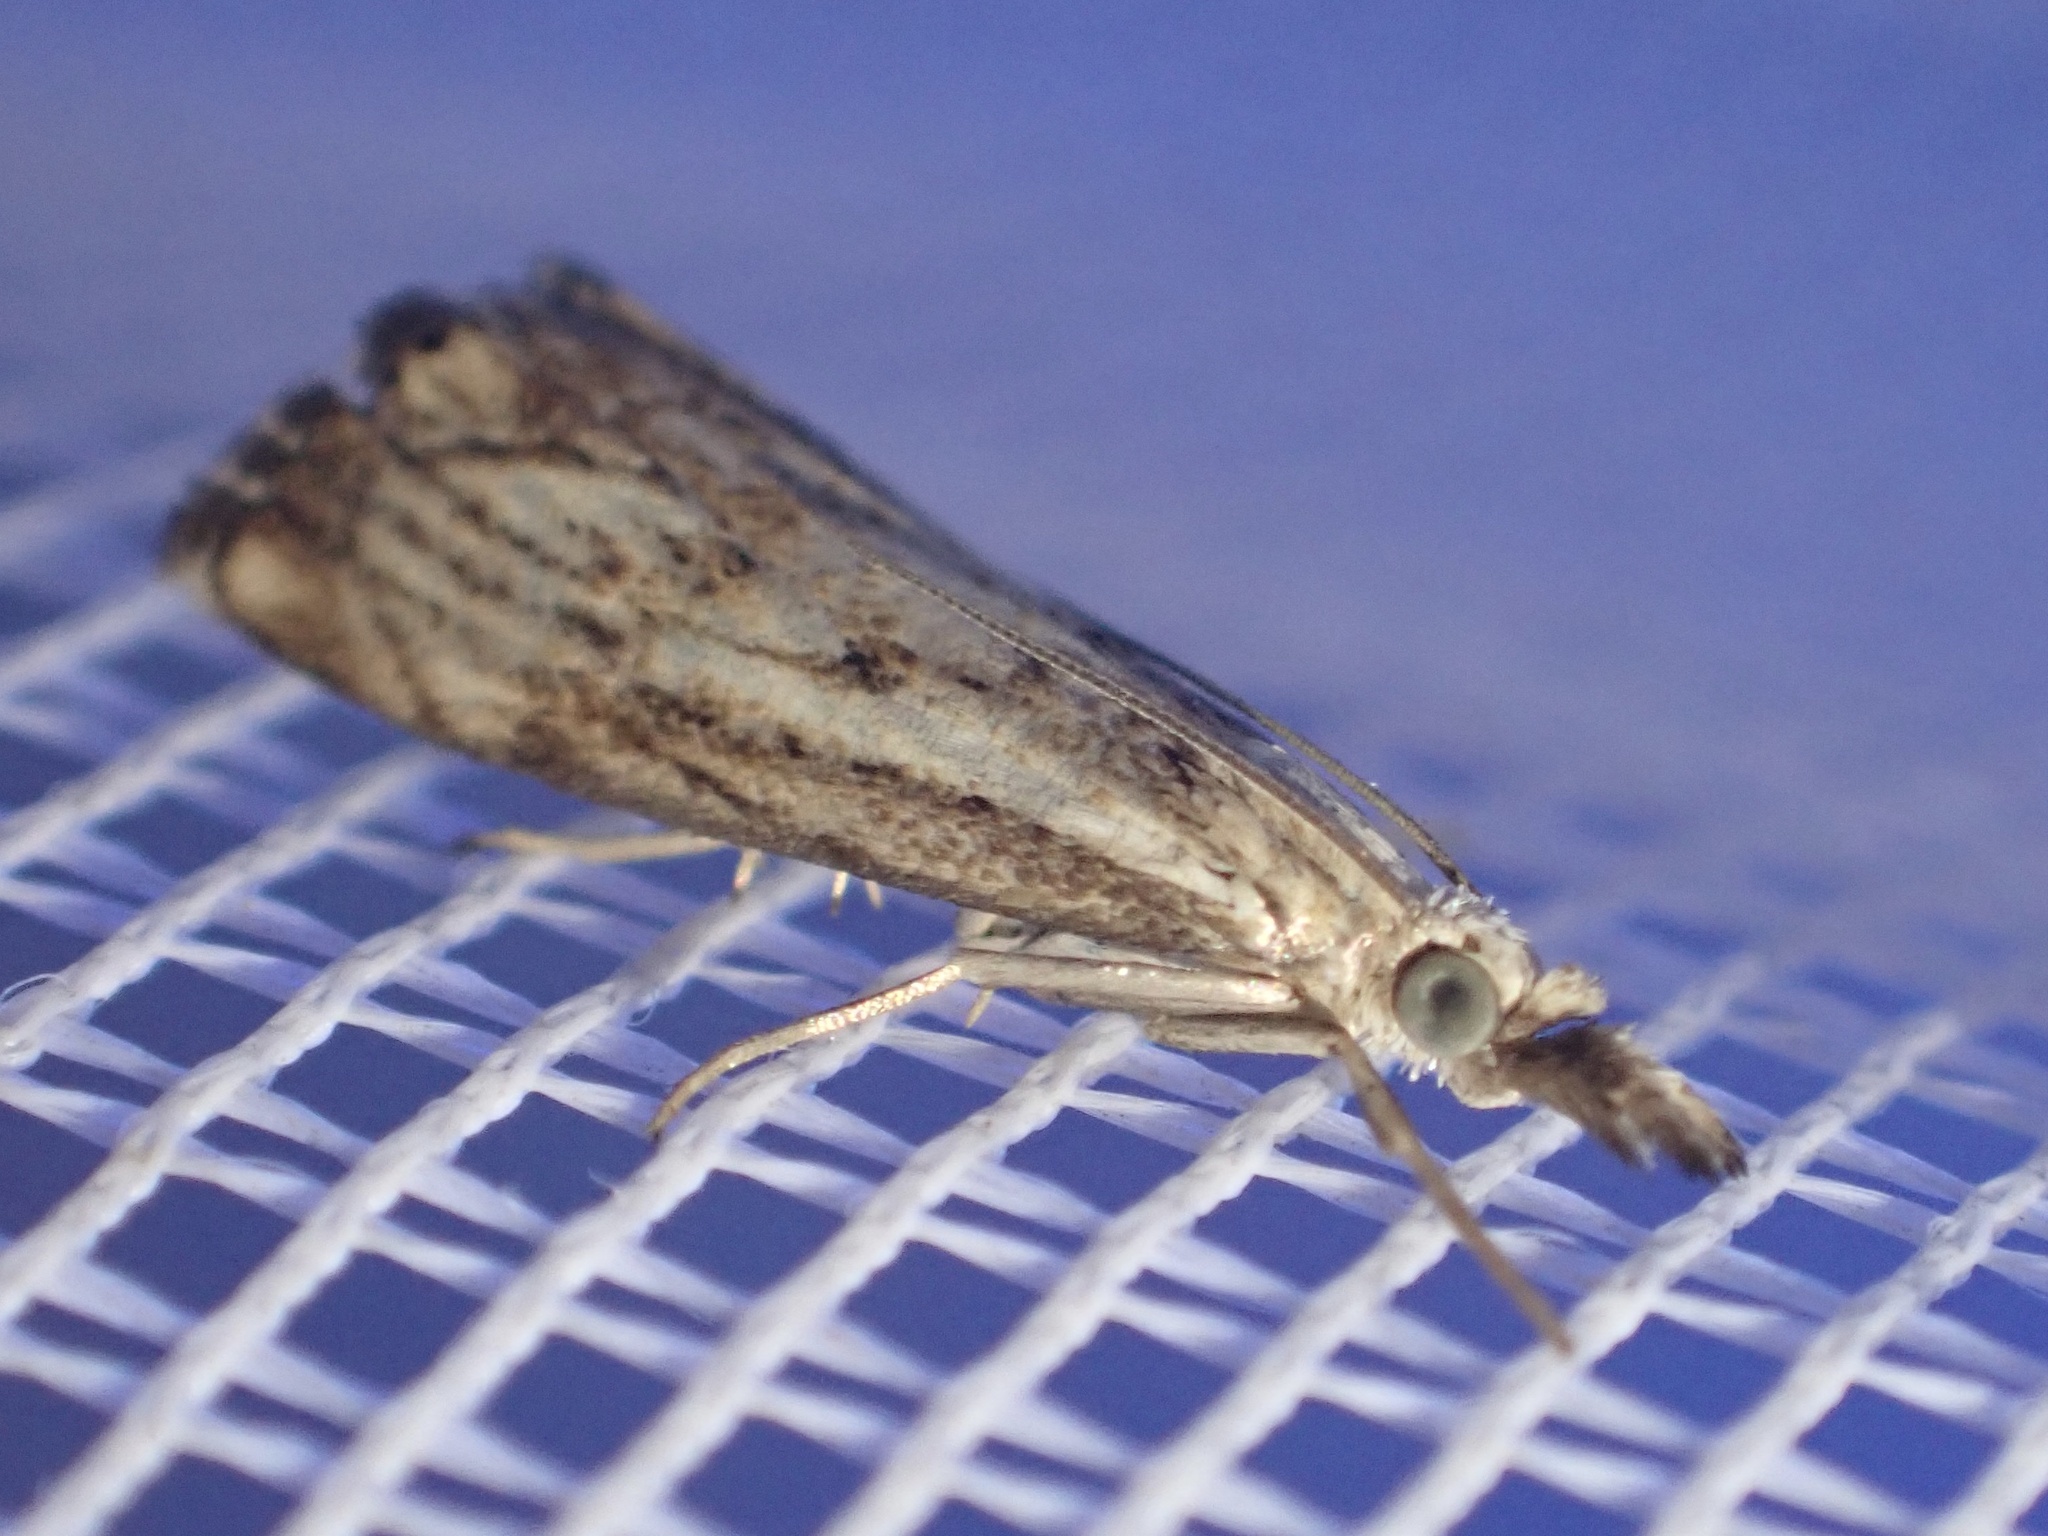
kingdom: Animalia
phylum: Arthropoda
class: Insecta
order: Lepidoptera
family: Crambidae
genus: Catoptria
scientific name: Catoptria falsella
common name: Chequered grass-veneer
